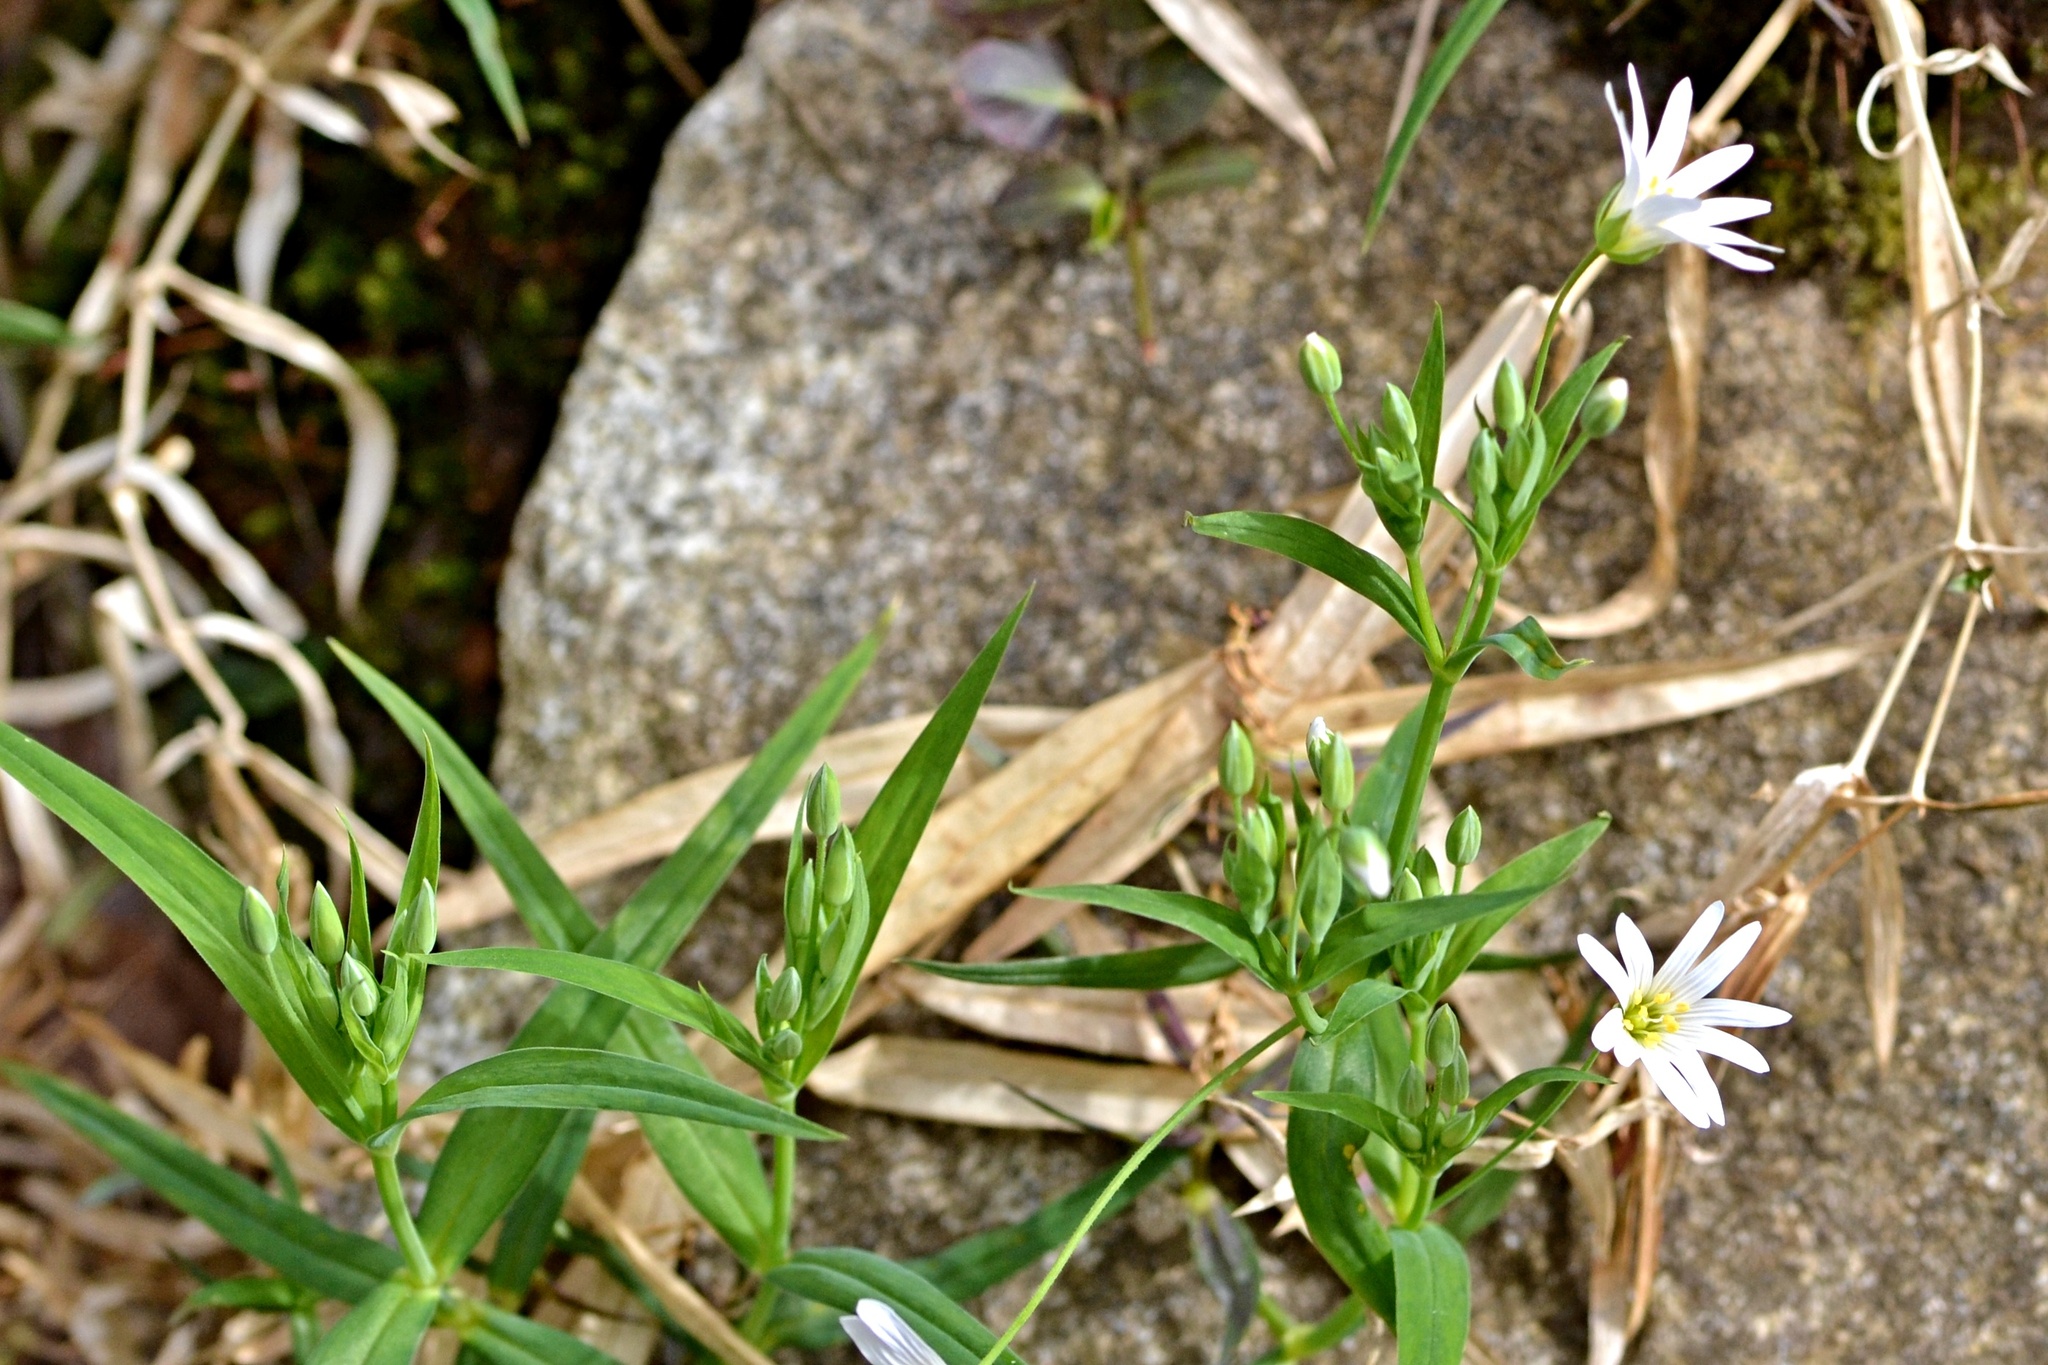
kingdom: Plantae
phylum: Tracheophyta
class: Magnoliopsida
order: Caryophyllales
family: Caryophyllaceae
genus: Rabelera
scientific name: Rabelera holostea
